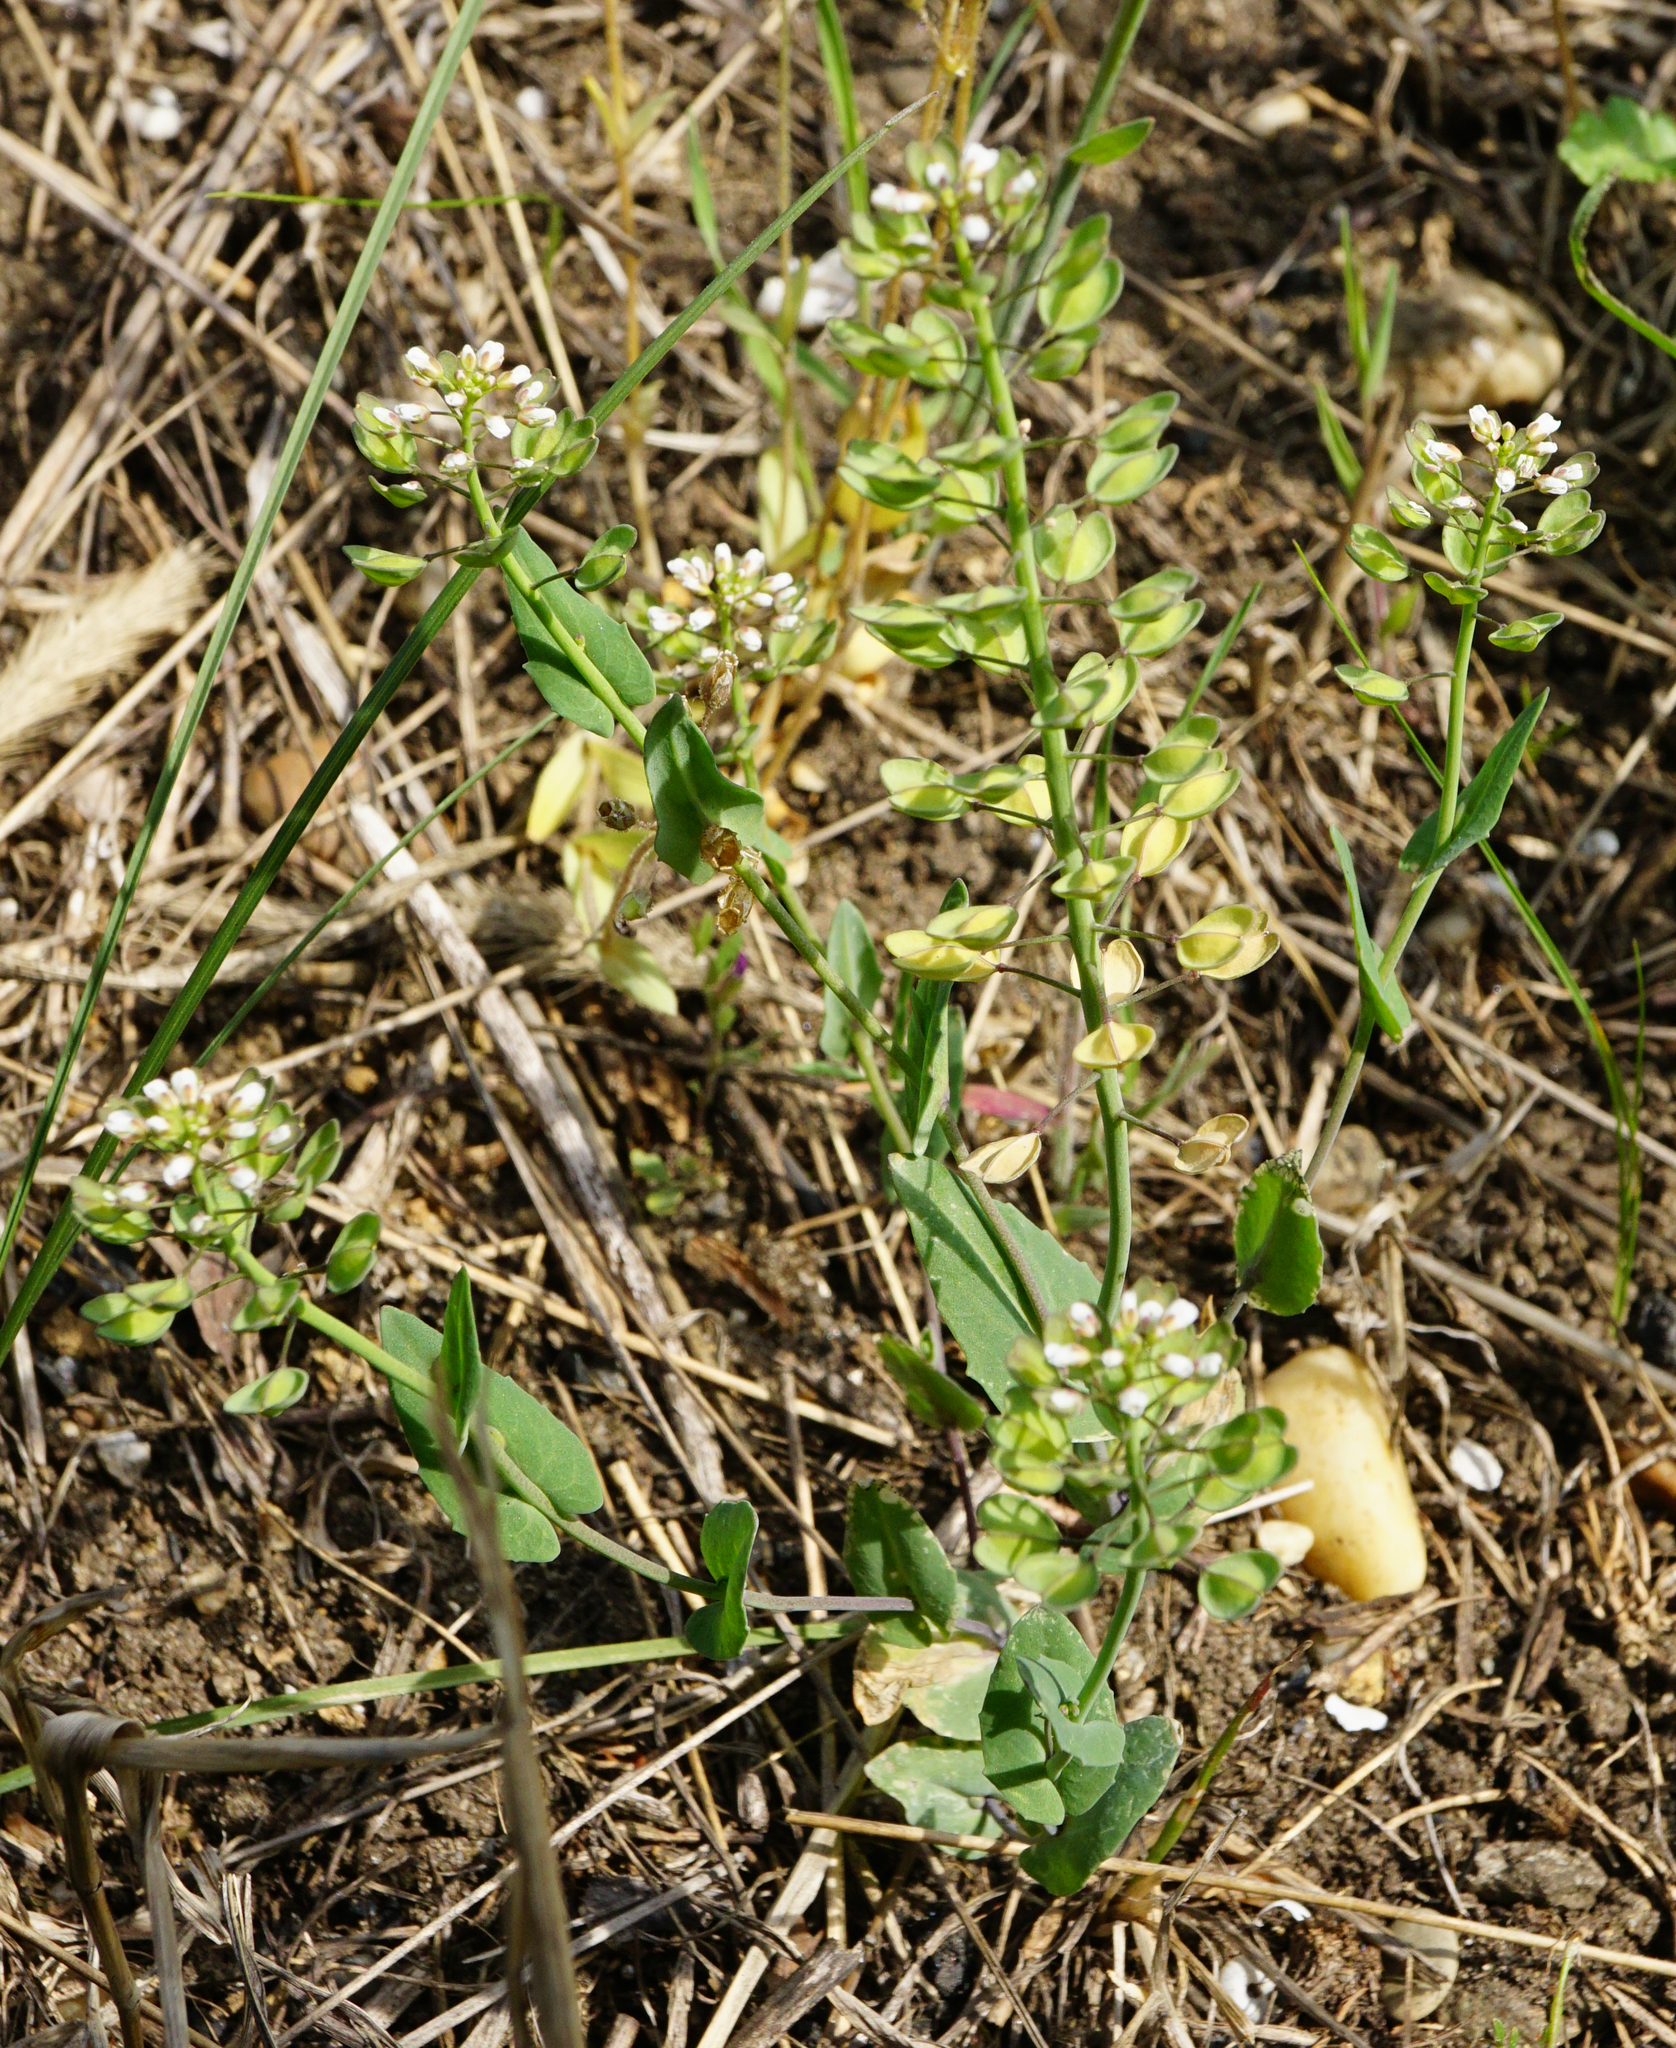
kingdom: Plantae
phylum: Tracheophyta
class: Magnoliopsida
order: Brassicales
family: Brassicaceae
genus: Noccaea
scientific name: Noccaea perfoliata
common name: Perfoliate pennycress
